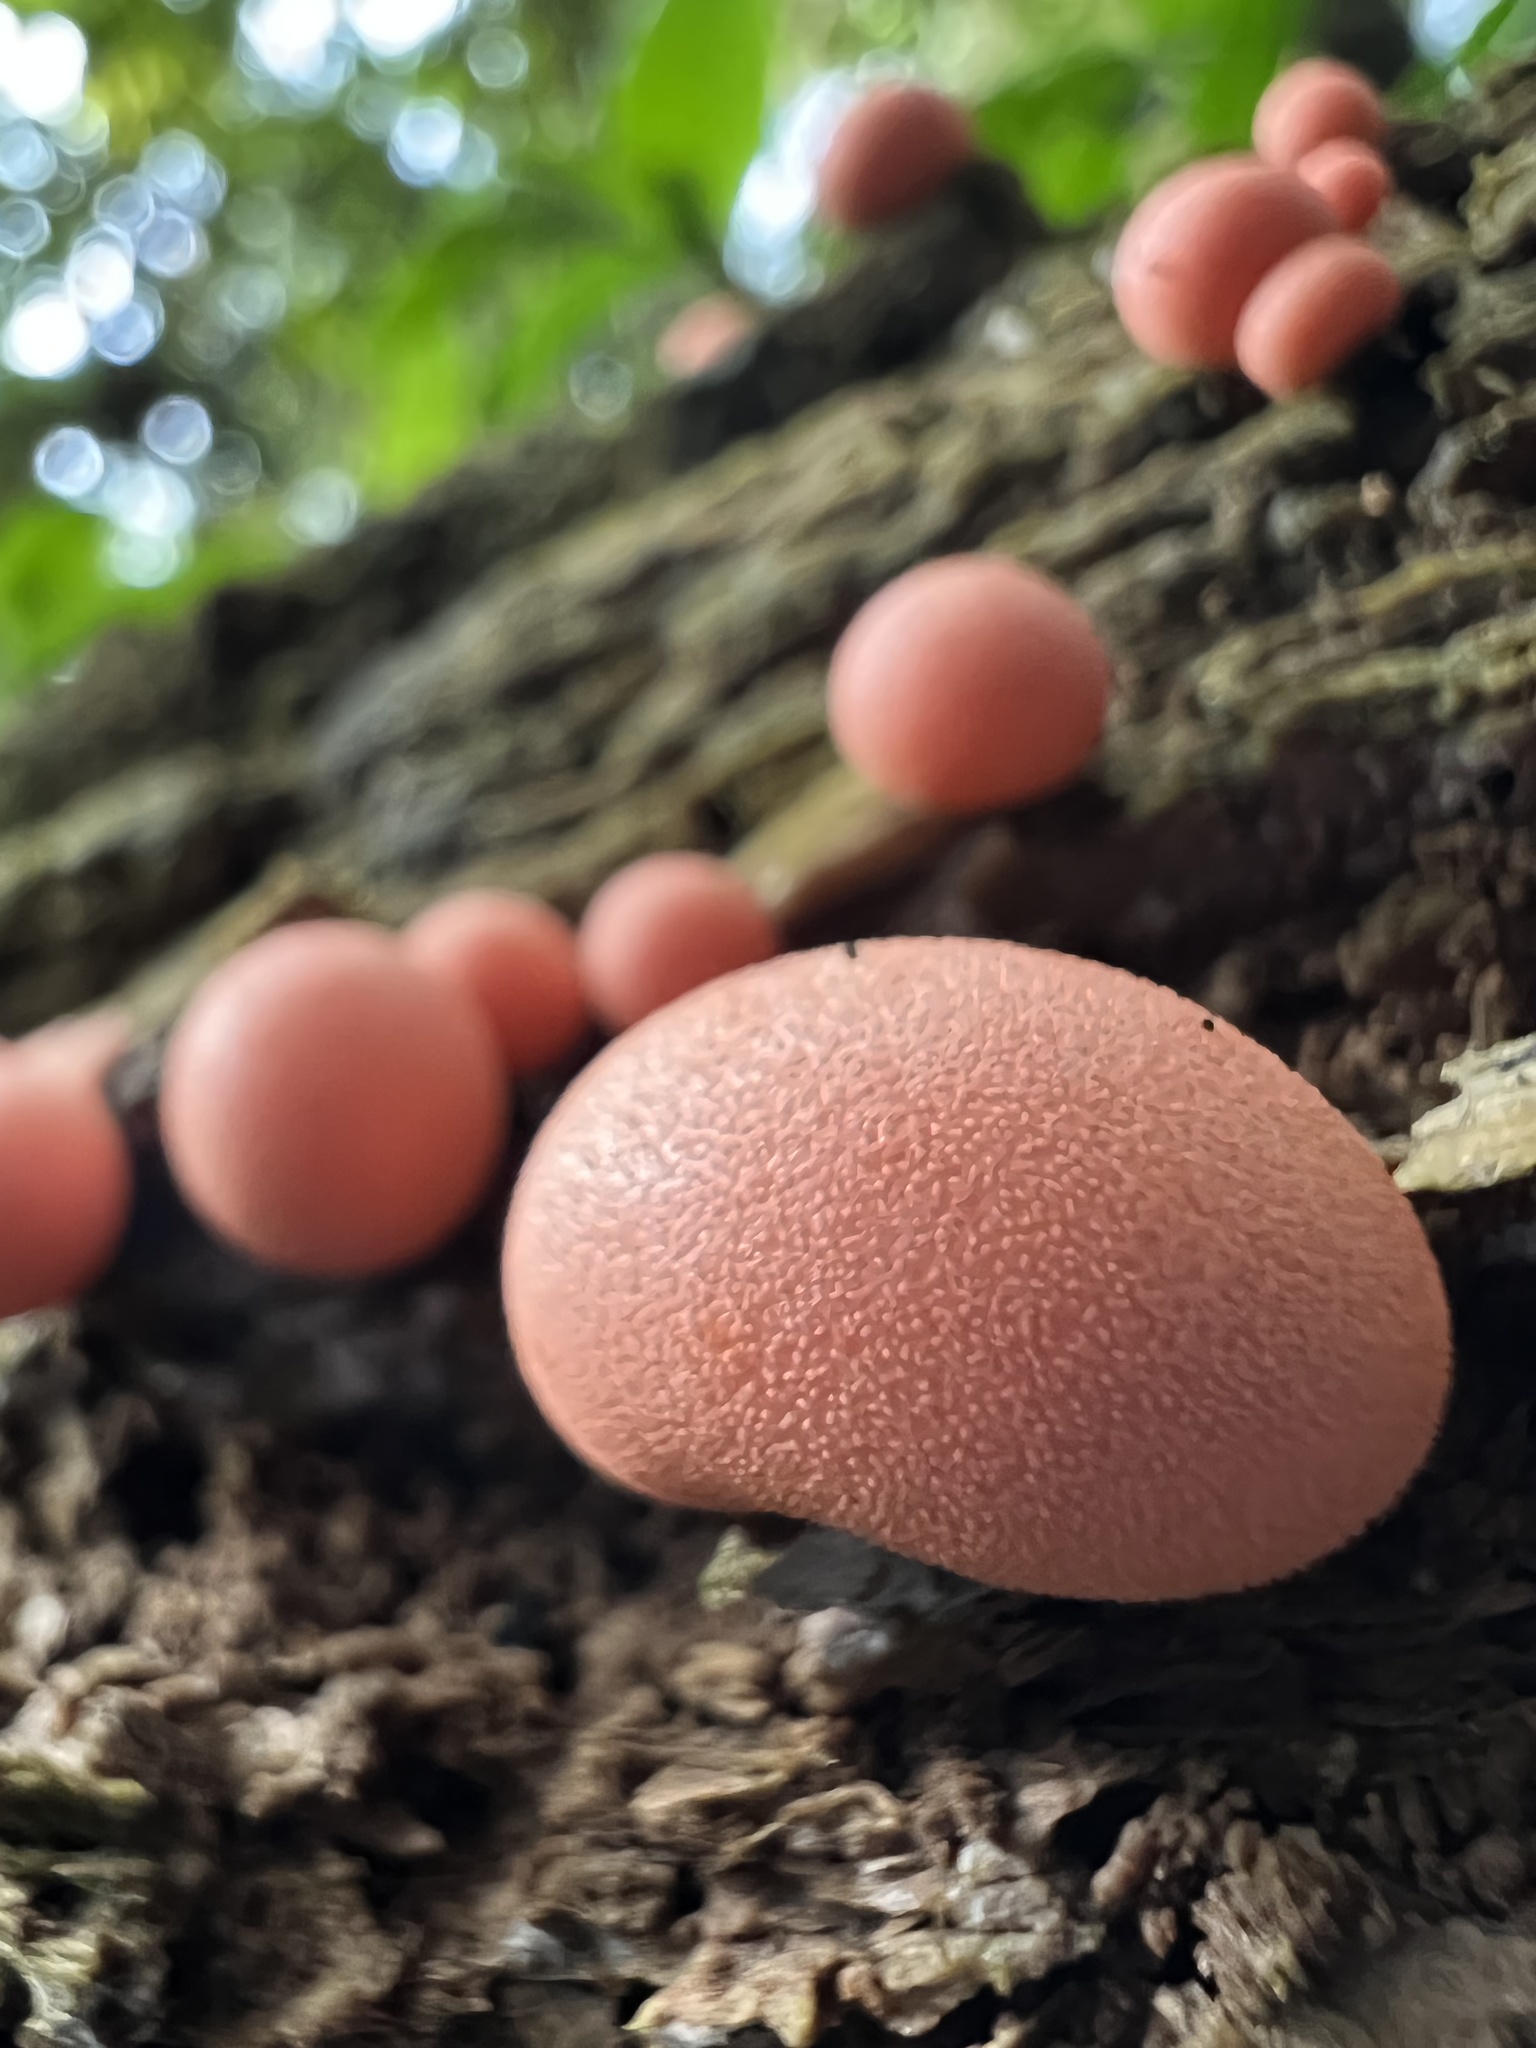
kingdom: Protozoa
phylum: Mycetozoa
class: Myxomycetes
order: Cribrariales
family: Tubiferaceae
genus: Lycogala
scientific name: Lycogala epidendrum
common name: Wolf's milk
